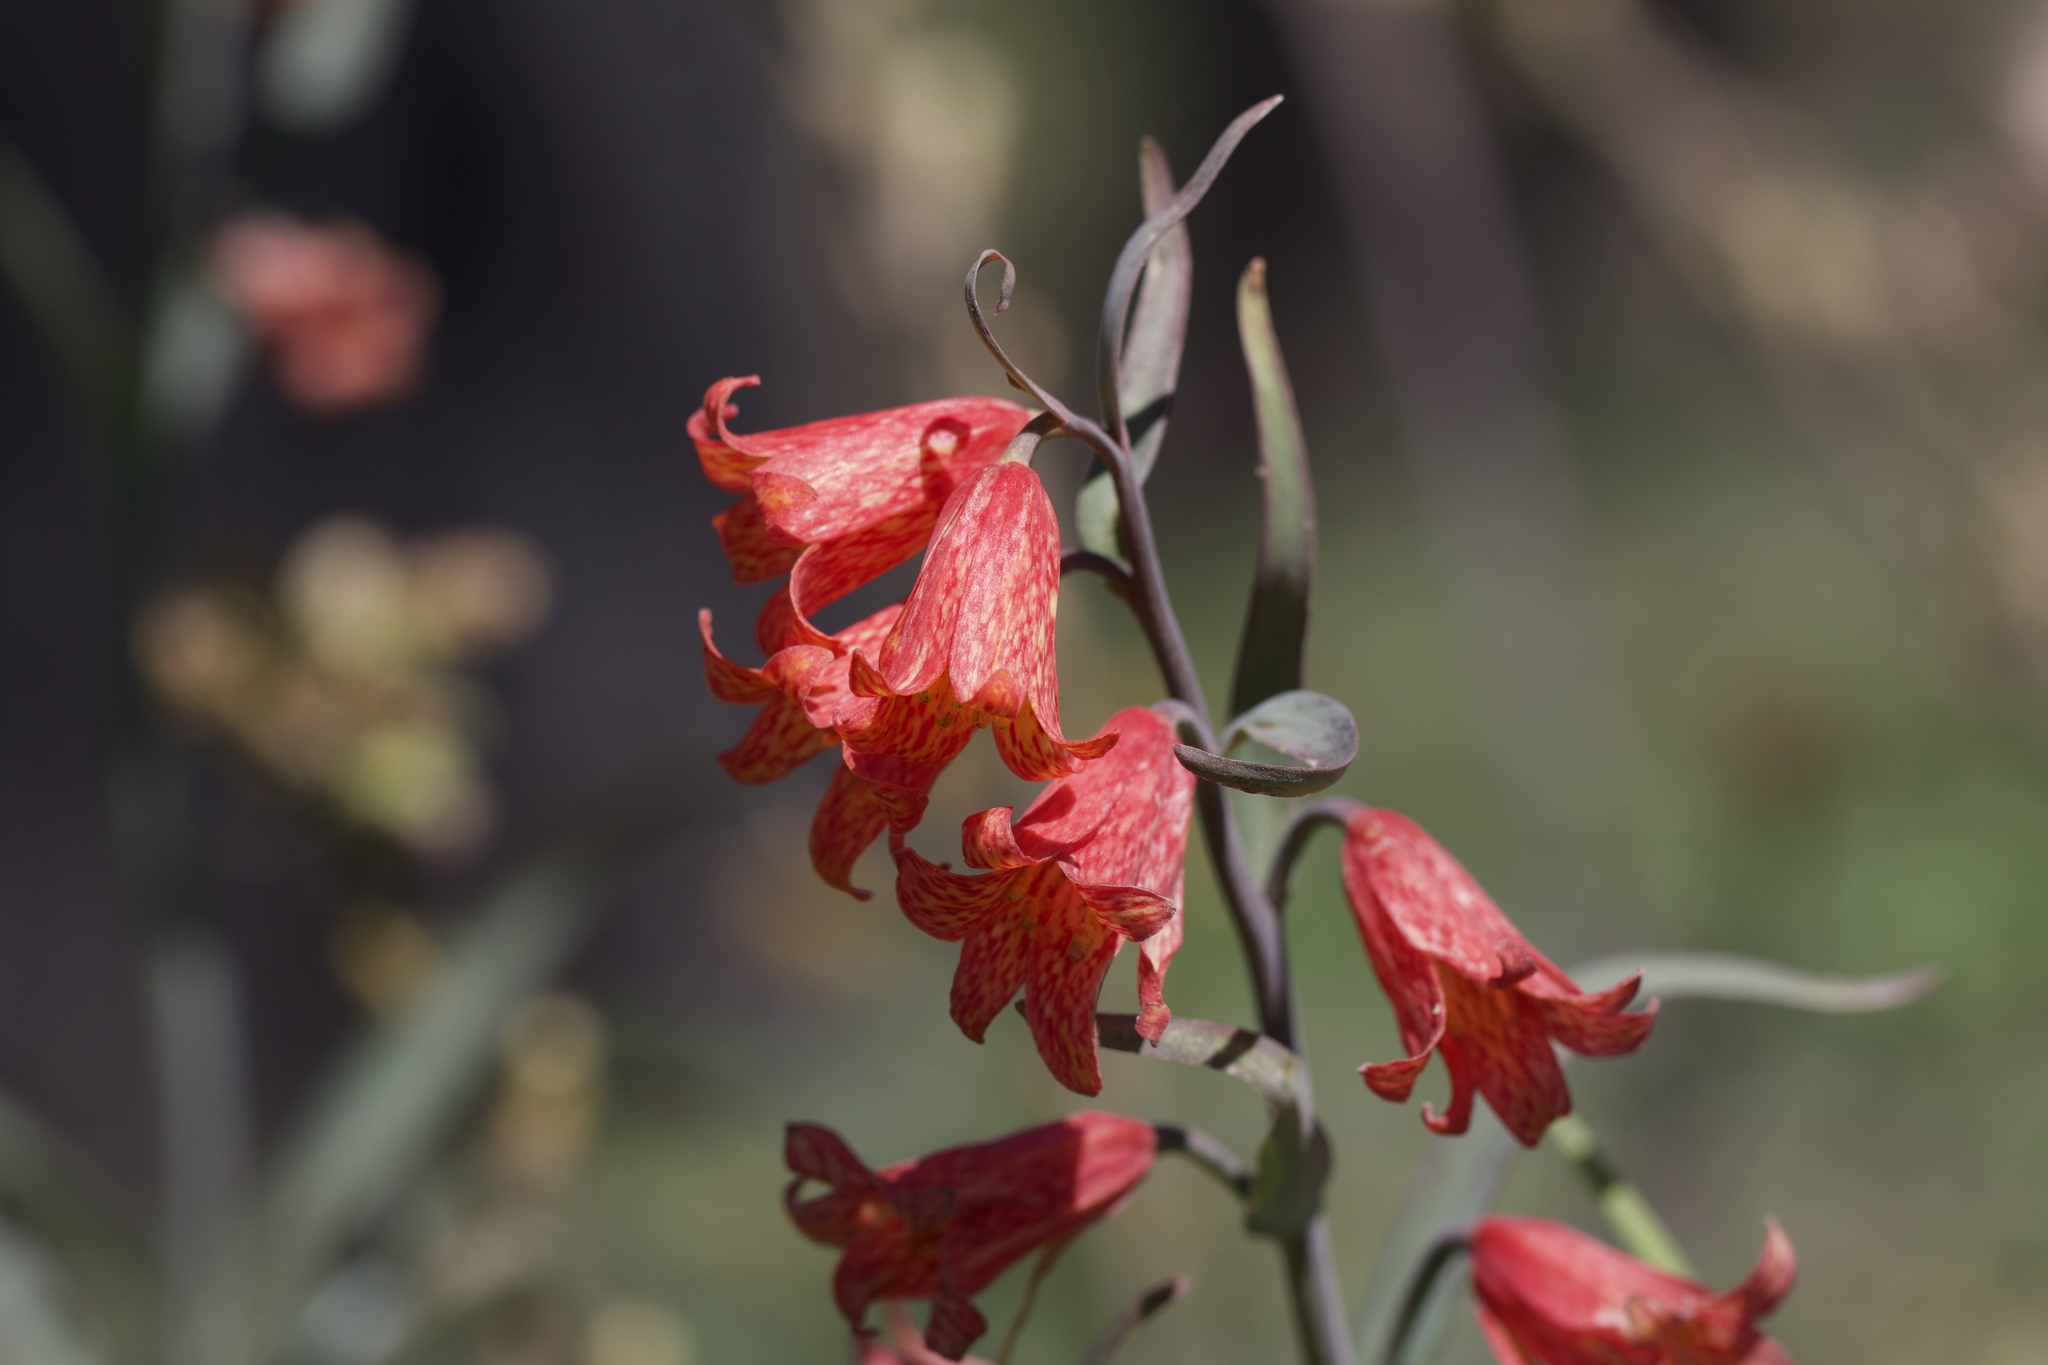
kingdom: Plantae
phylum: Tracheophyta
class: Liliopsida
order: Liliales
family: Liliaceae
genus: Fritillaria
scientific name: Fritillaria recurva
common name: Scarlet fritillary
